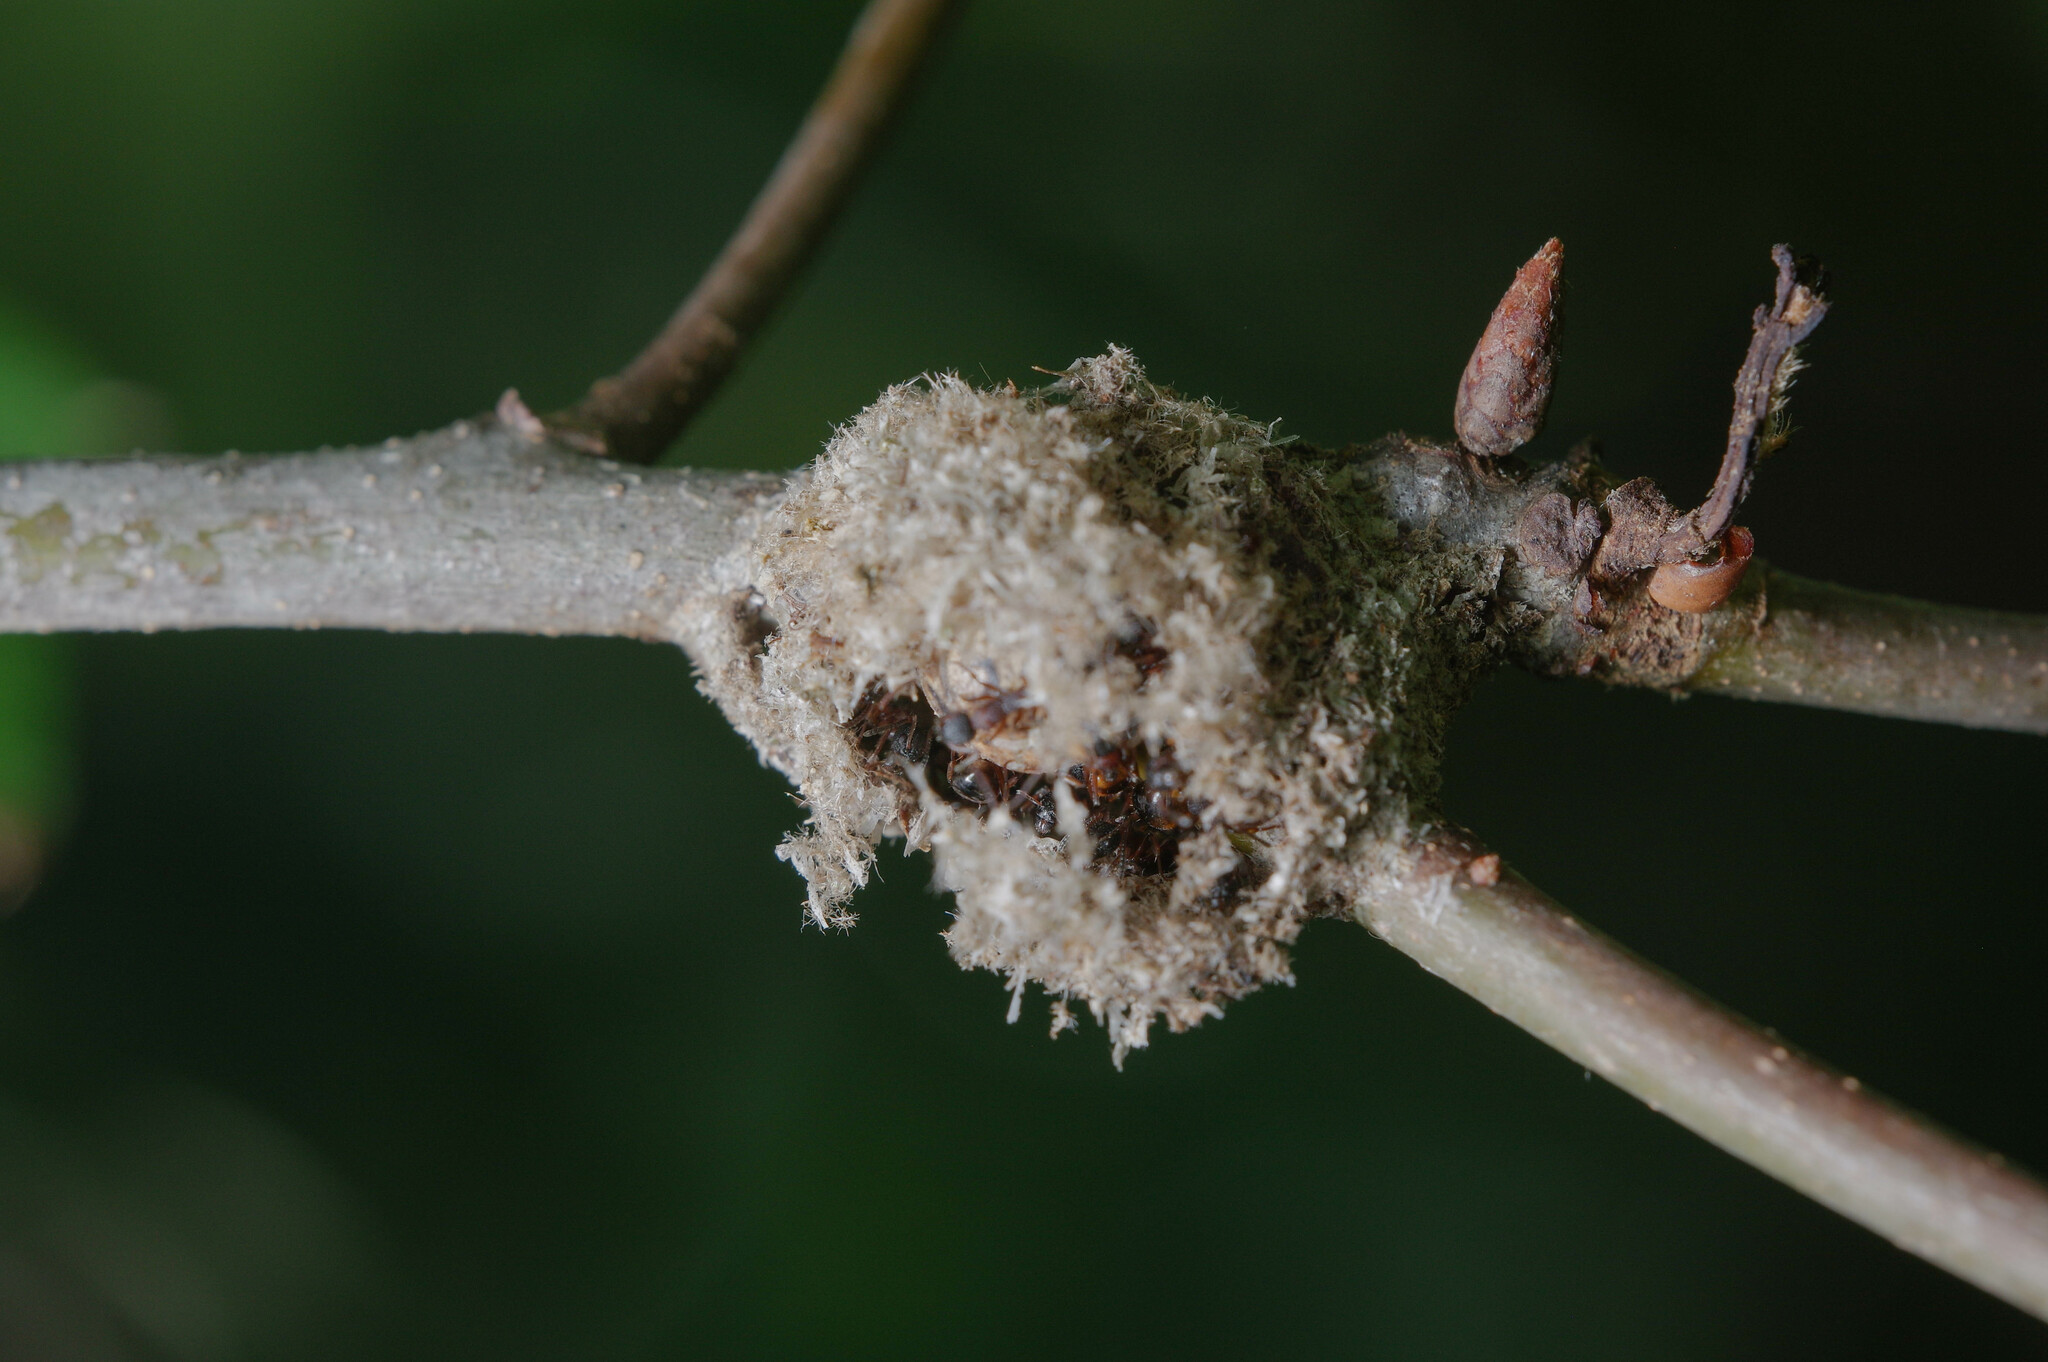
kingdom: Animalia
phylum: Arthropoda
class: Insecta
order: Hymenoptera
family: Formicidae
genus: Dolichoderus
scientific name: Dolichoderus plagiatus
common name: Mottled dolichoderus
